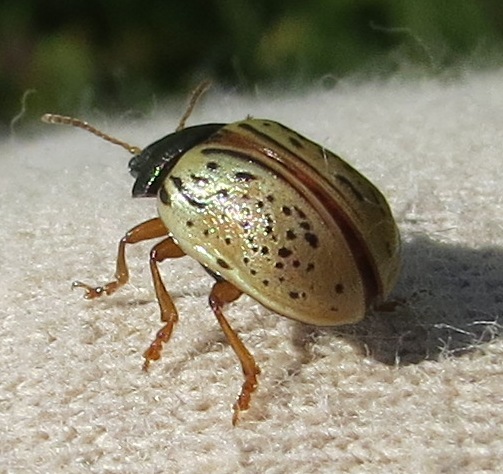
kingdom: Animalia
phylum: Arthropoda
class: Insecta
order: Coleoptera
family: Chrysomelidae
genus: Calligrapha
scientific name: Calligrapha philadelphica
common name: Dogwood leaf beetle
